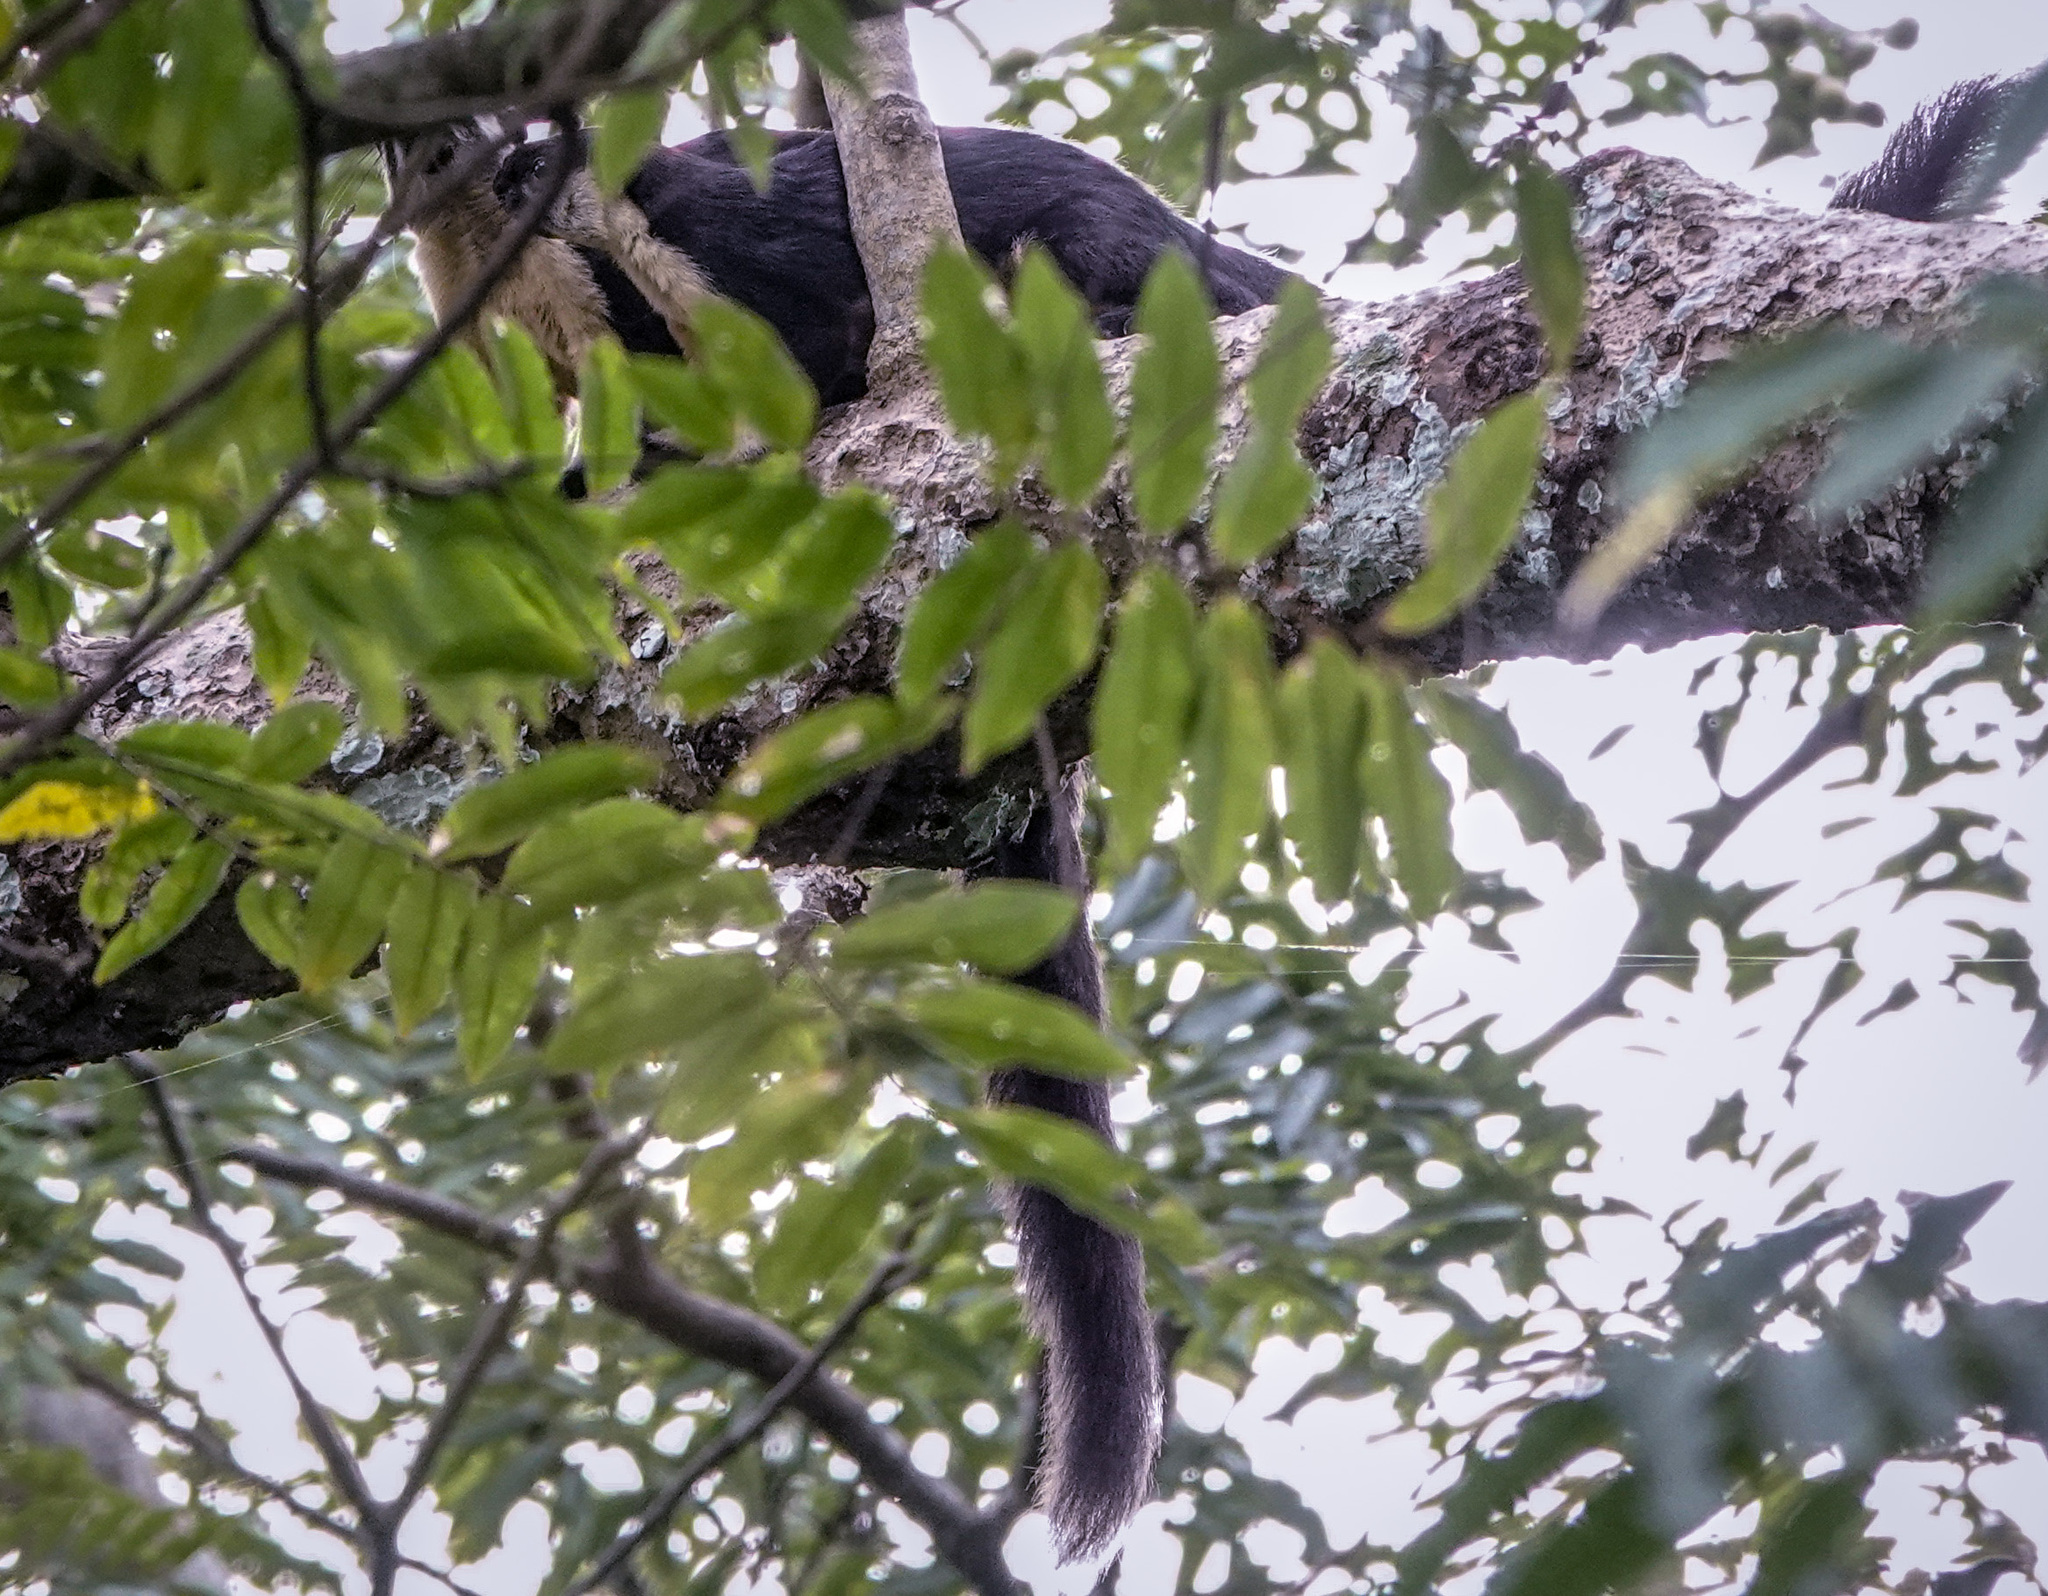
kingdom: Animalia
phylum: Chordata
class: Mammalia
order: Rodentia
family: Sciuridae
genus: Ratufa
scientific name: Ratufa bicolor
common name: Black giant squirrel
